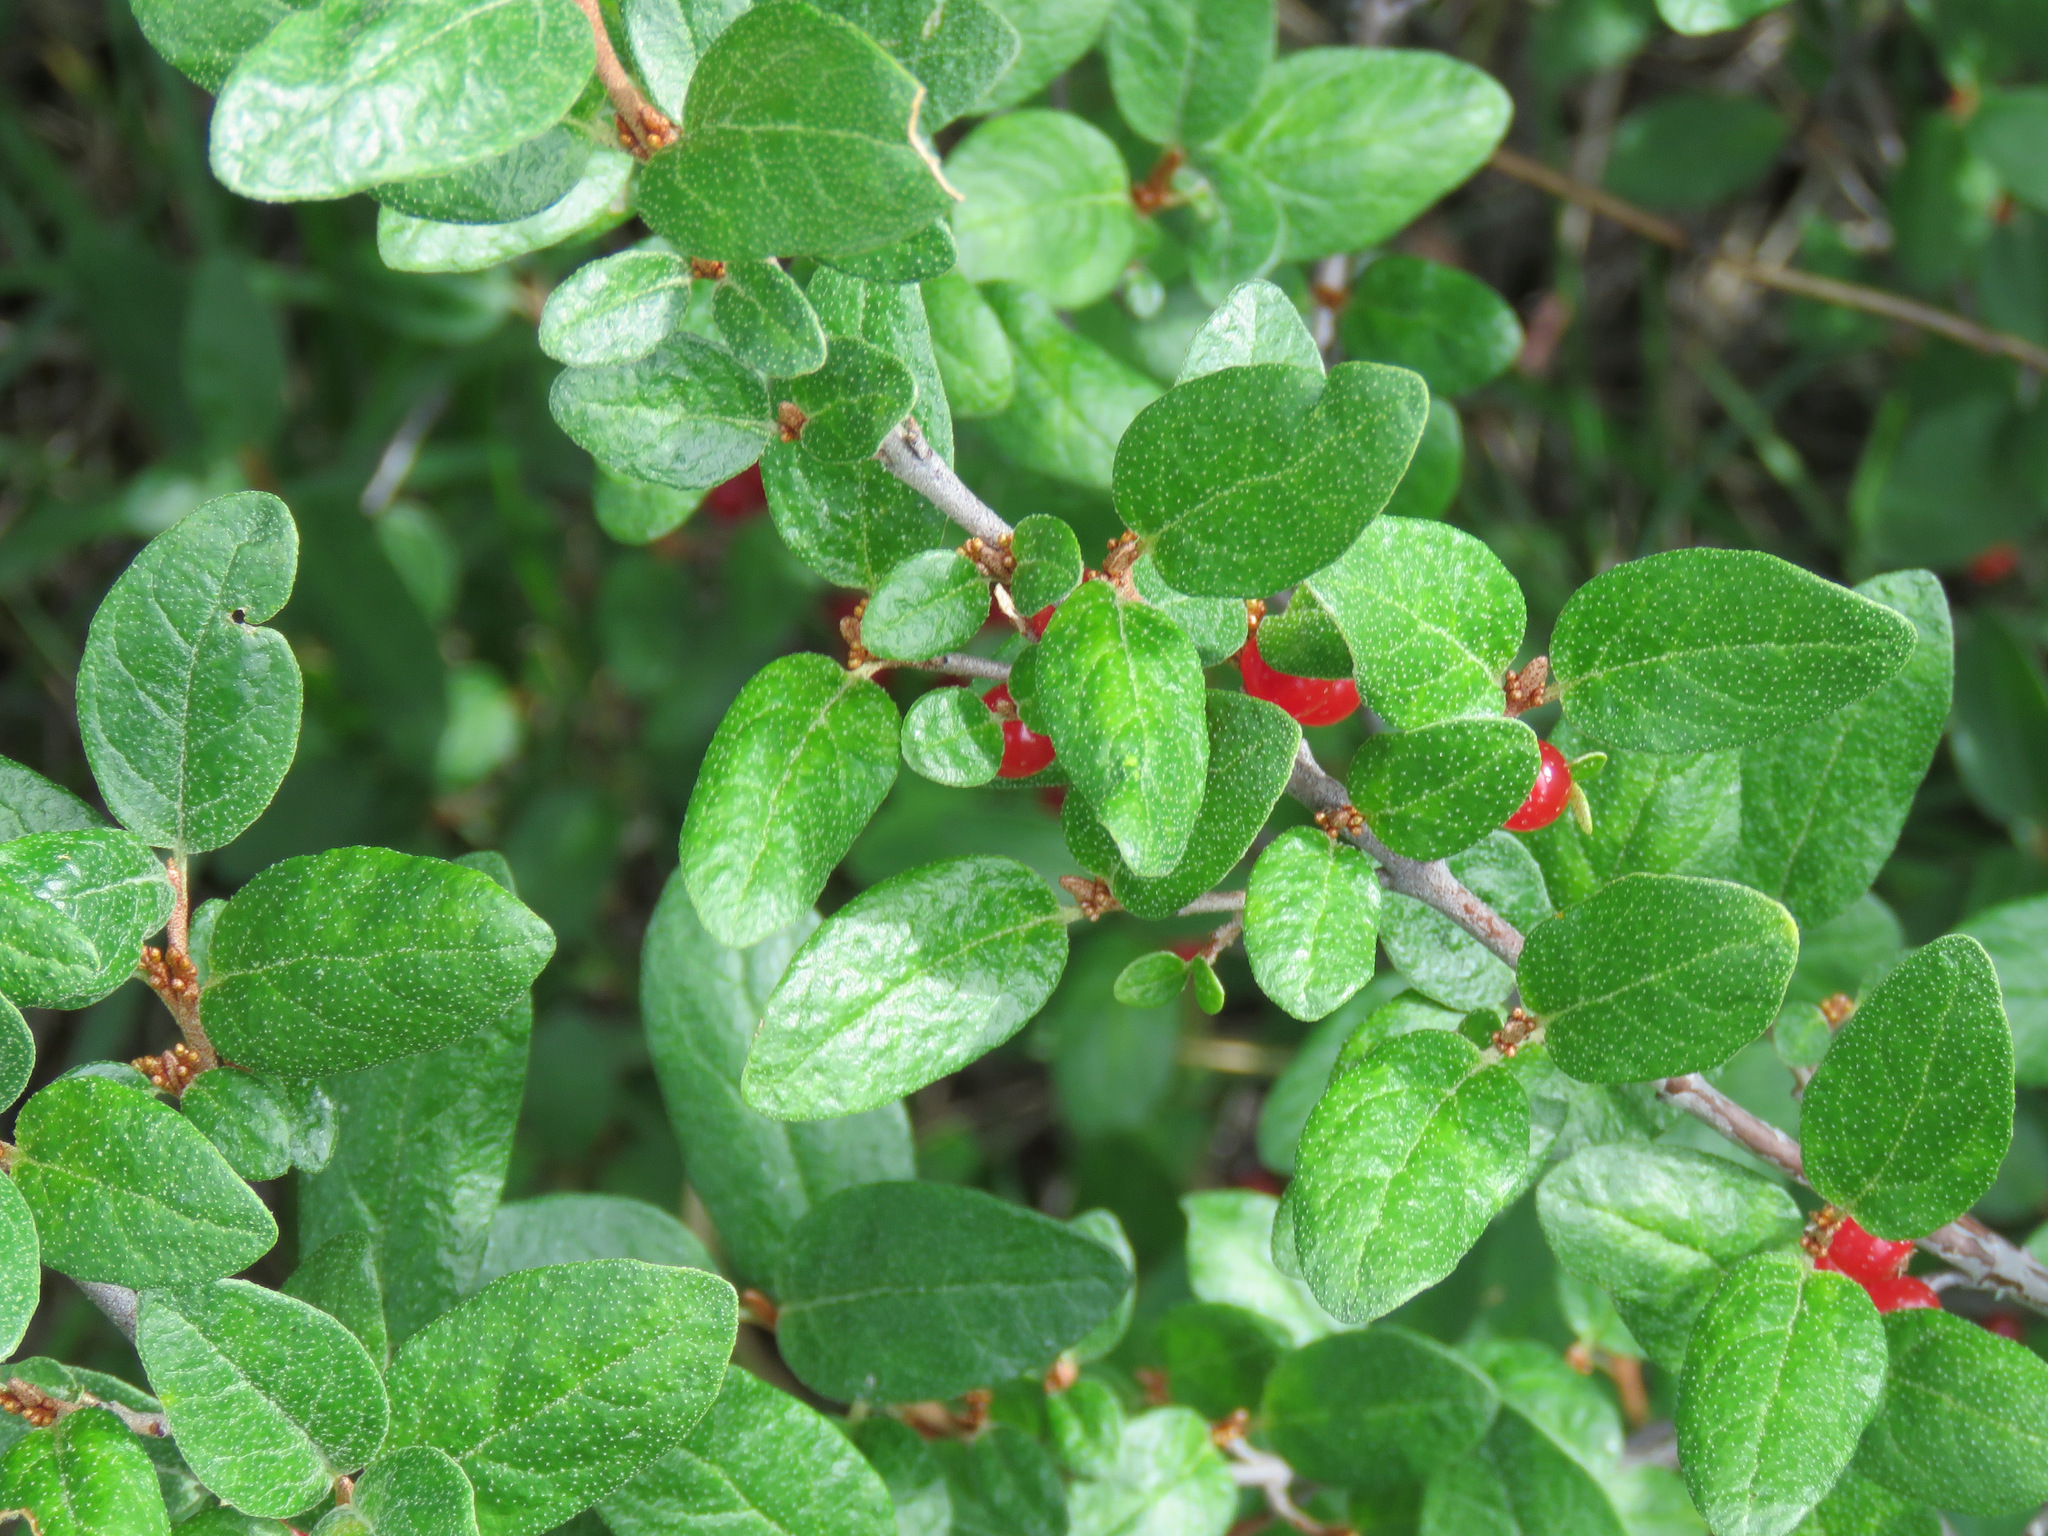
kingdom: Plantae
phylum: Tracheophyta
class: Magnoliopsida
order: Rosales
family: Elaeagnaceae
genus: Shepherdia
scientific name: Shepherdia canadensis
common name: Soapberry
